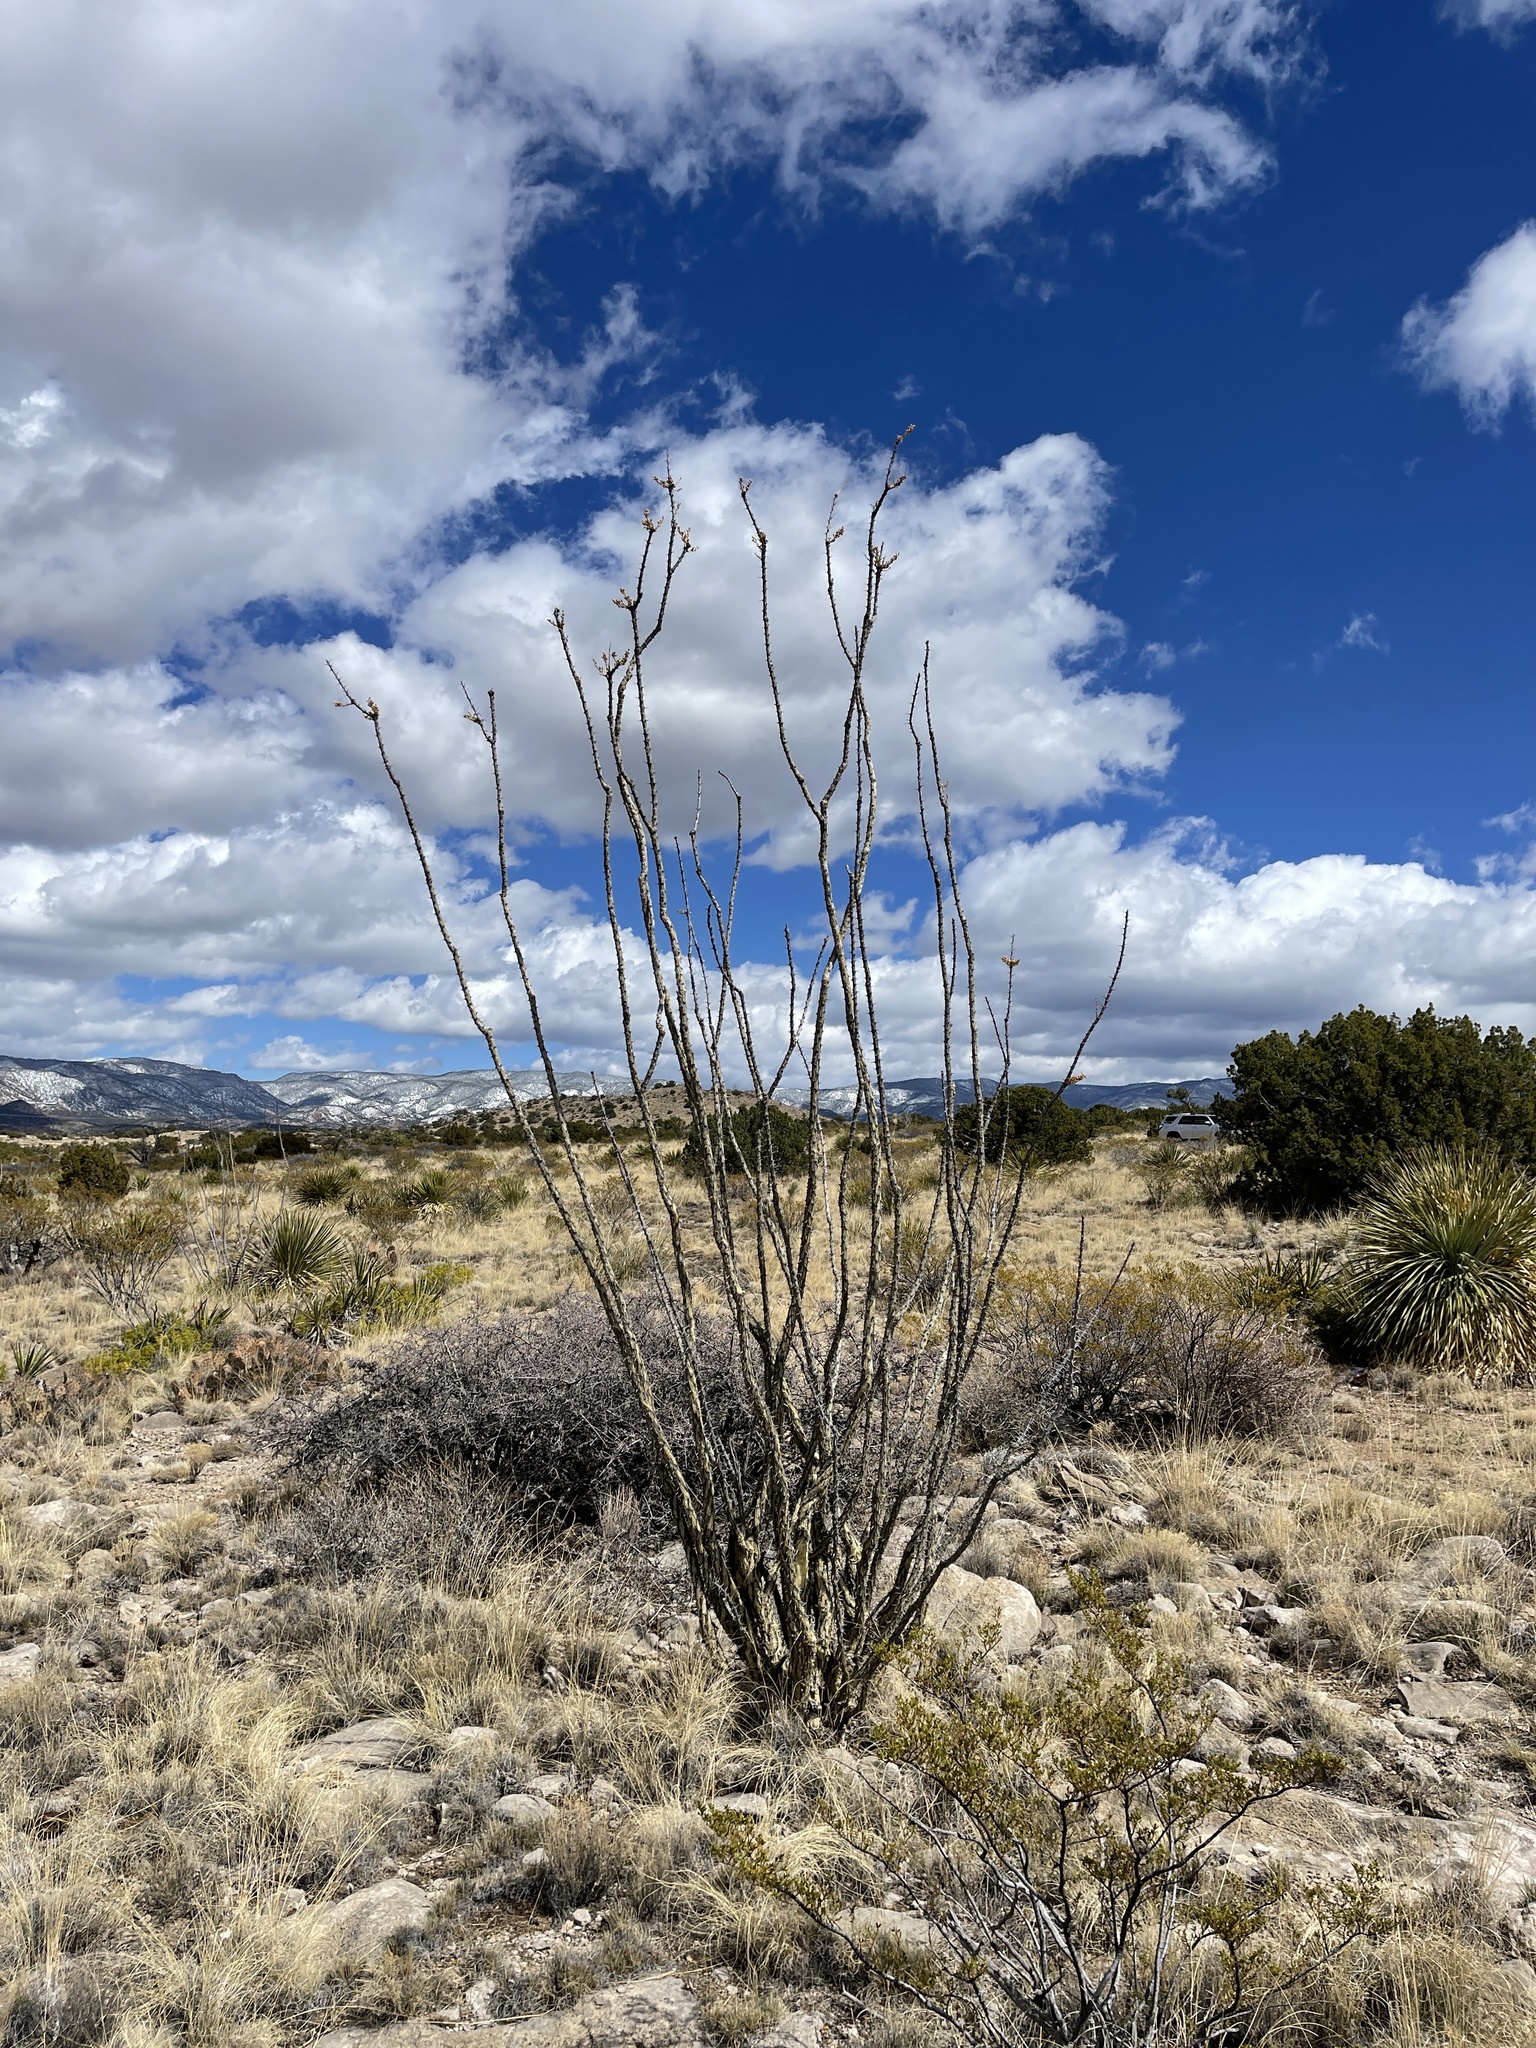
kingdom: Plantae
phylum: Tracheophyta
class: Magnoliopsida
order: Ericales
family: Fouquieriaceae
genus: Fouquieria
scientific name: Fouquieria splendens
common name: Vine-cactus
